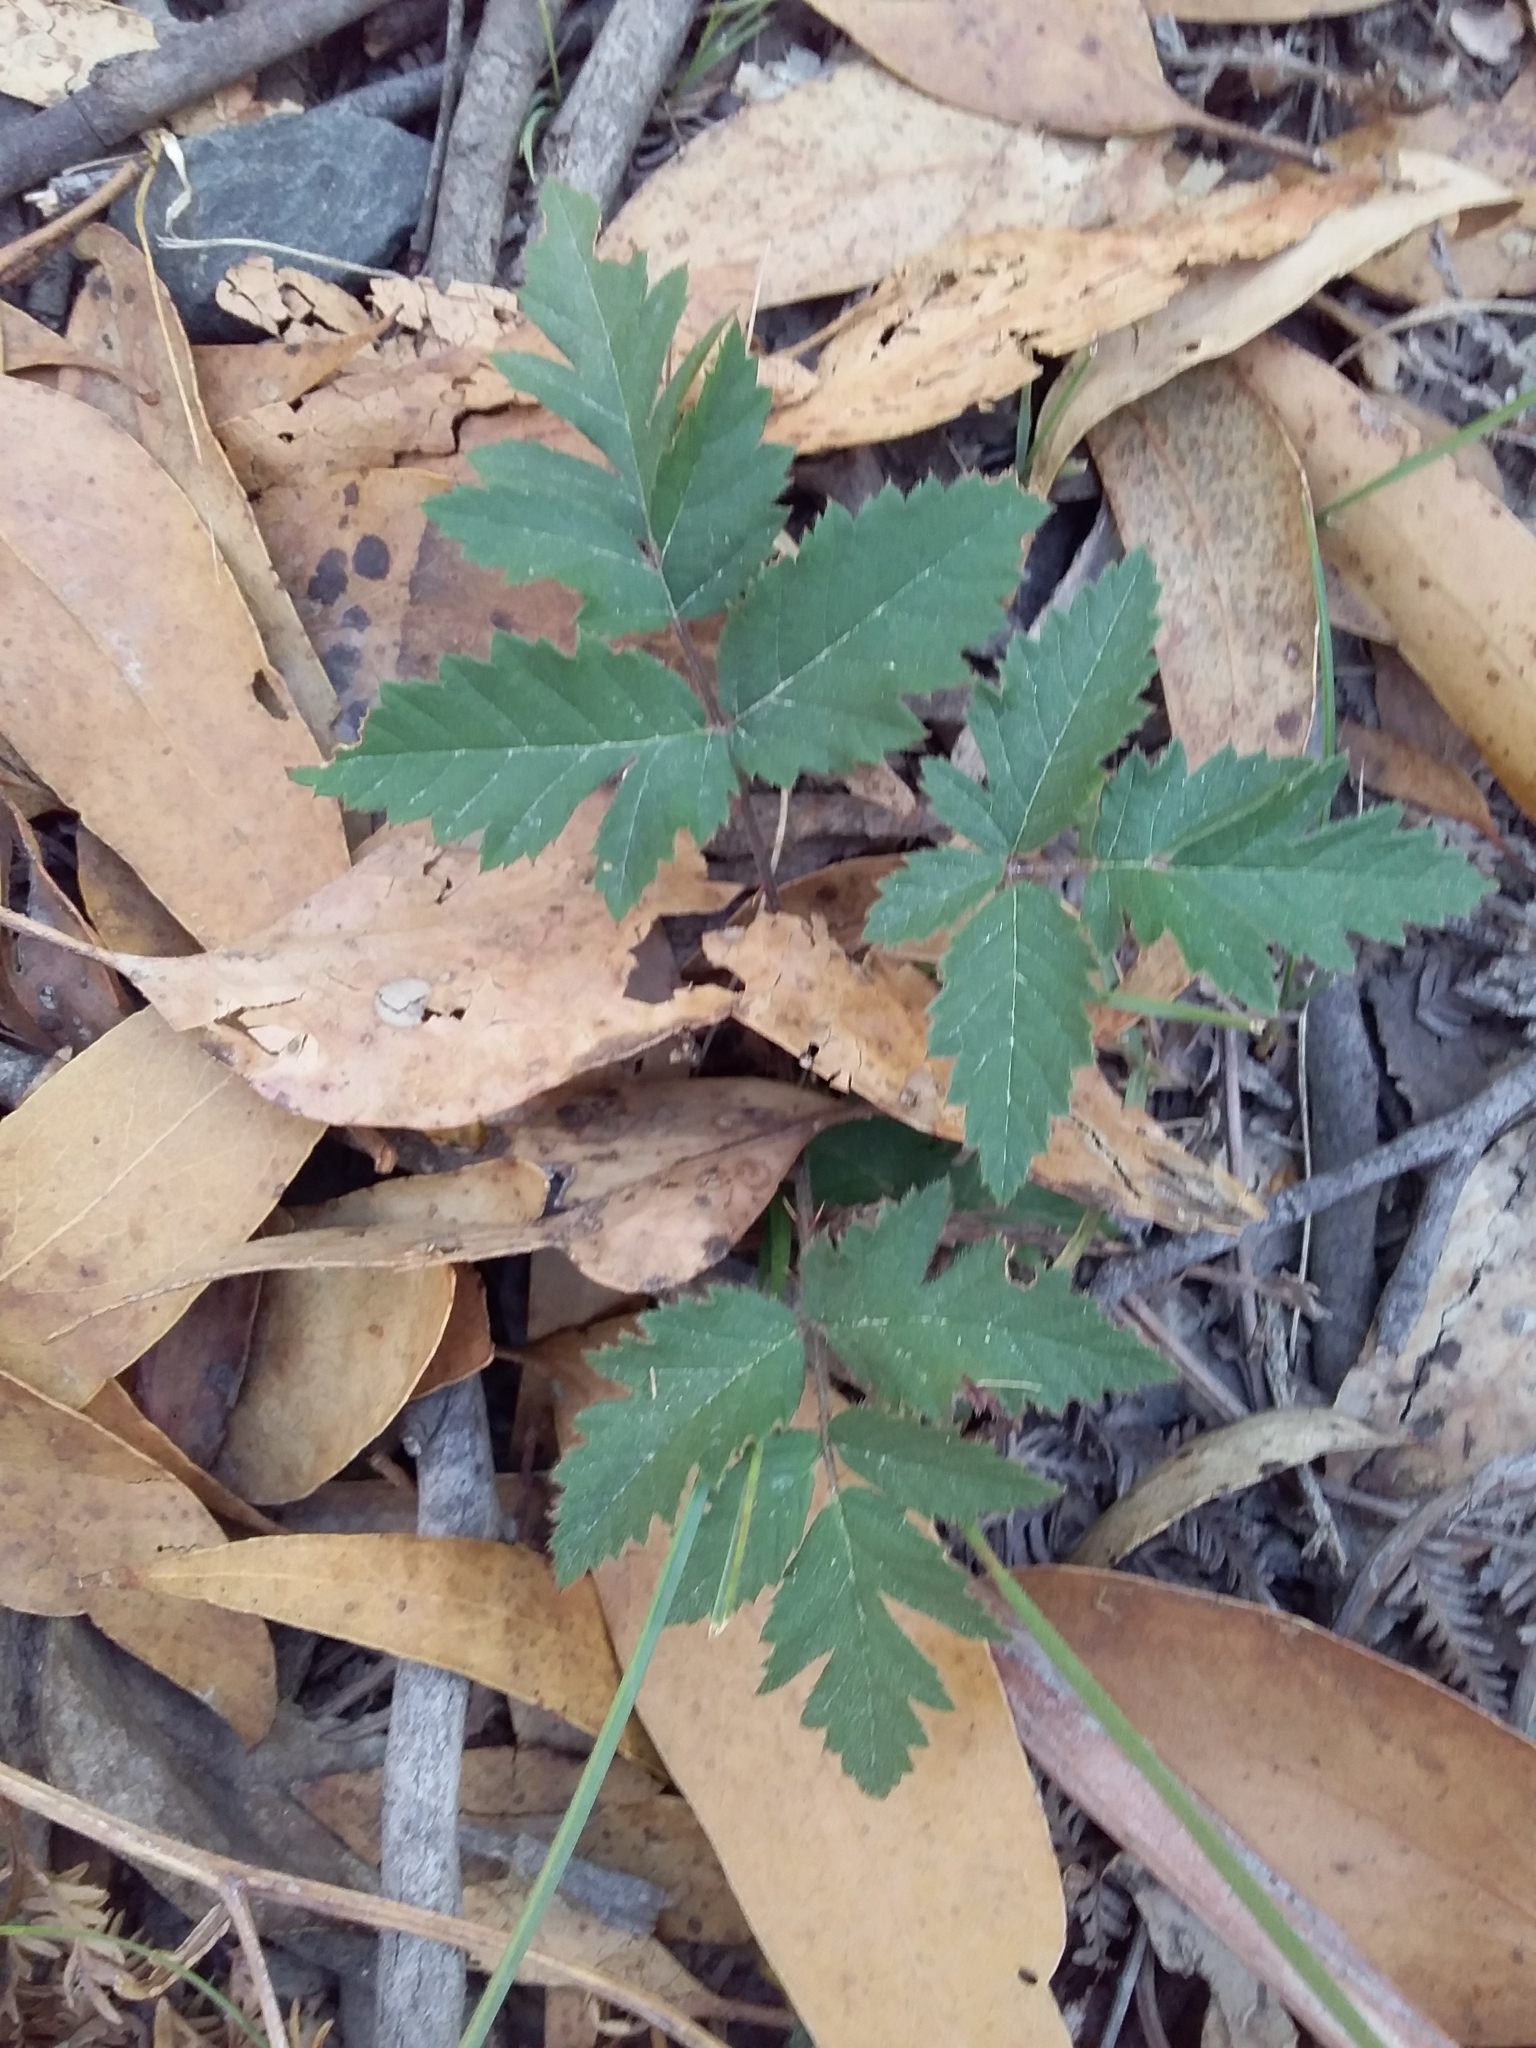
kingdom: Plantae
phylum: Tracheophyta
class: Magnoliopsida
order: Rosales
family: Rosaceae
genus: Rubus
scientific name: Rubus laciniatus
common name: Evergreen blackberry
